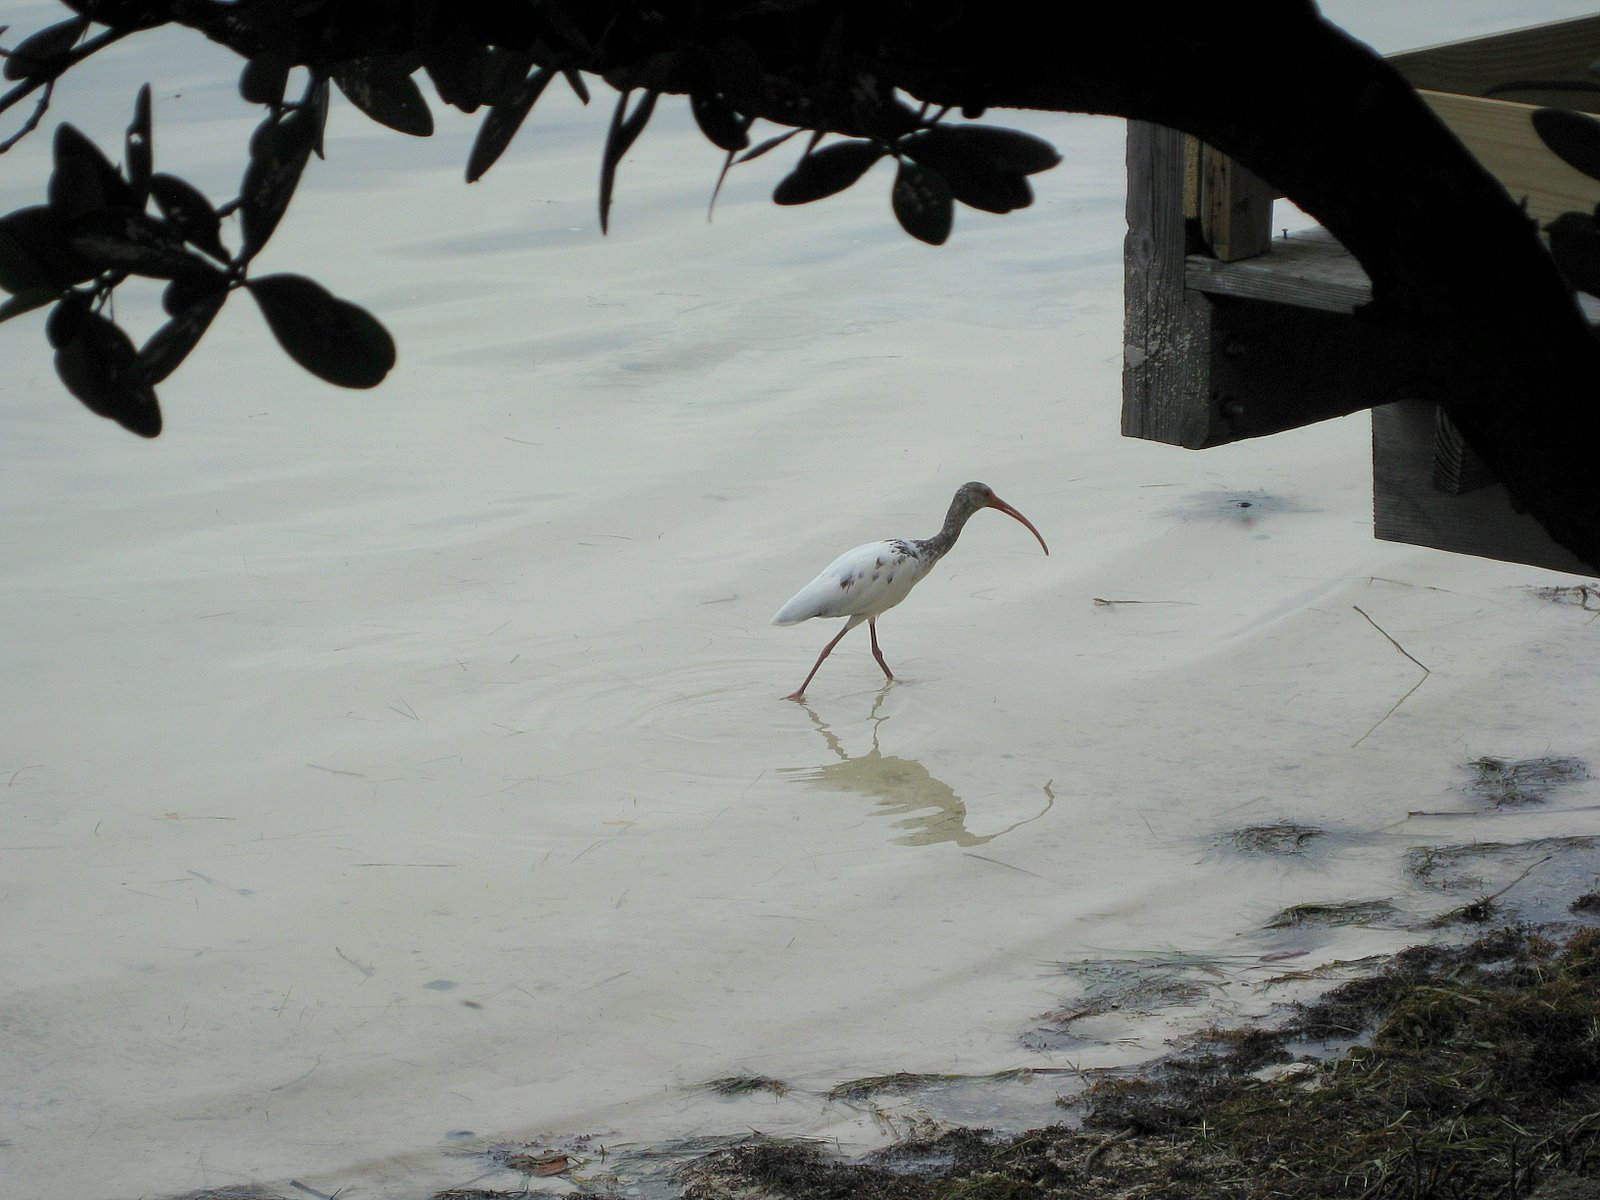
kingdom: Animalia
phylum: Chordata
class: Aves
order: Pelecaniformes
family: Threskiornithidae
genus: Eudocimus
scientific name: Eudocimus albus
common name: White ibis
